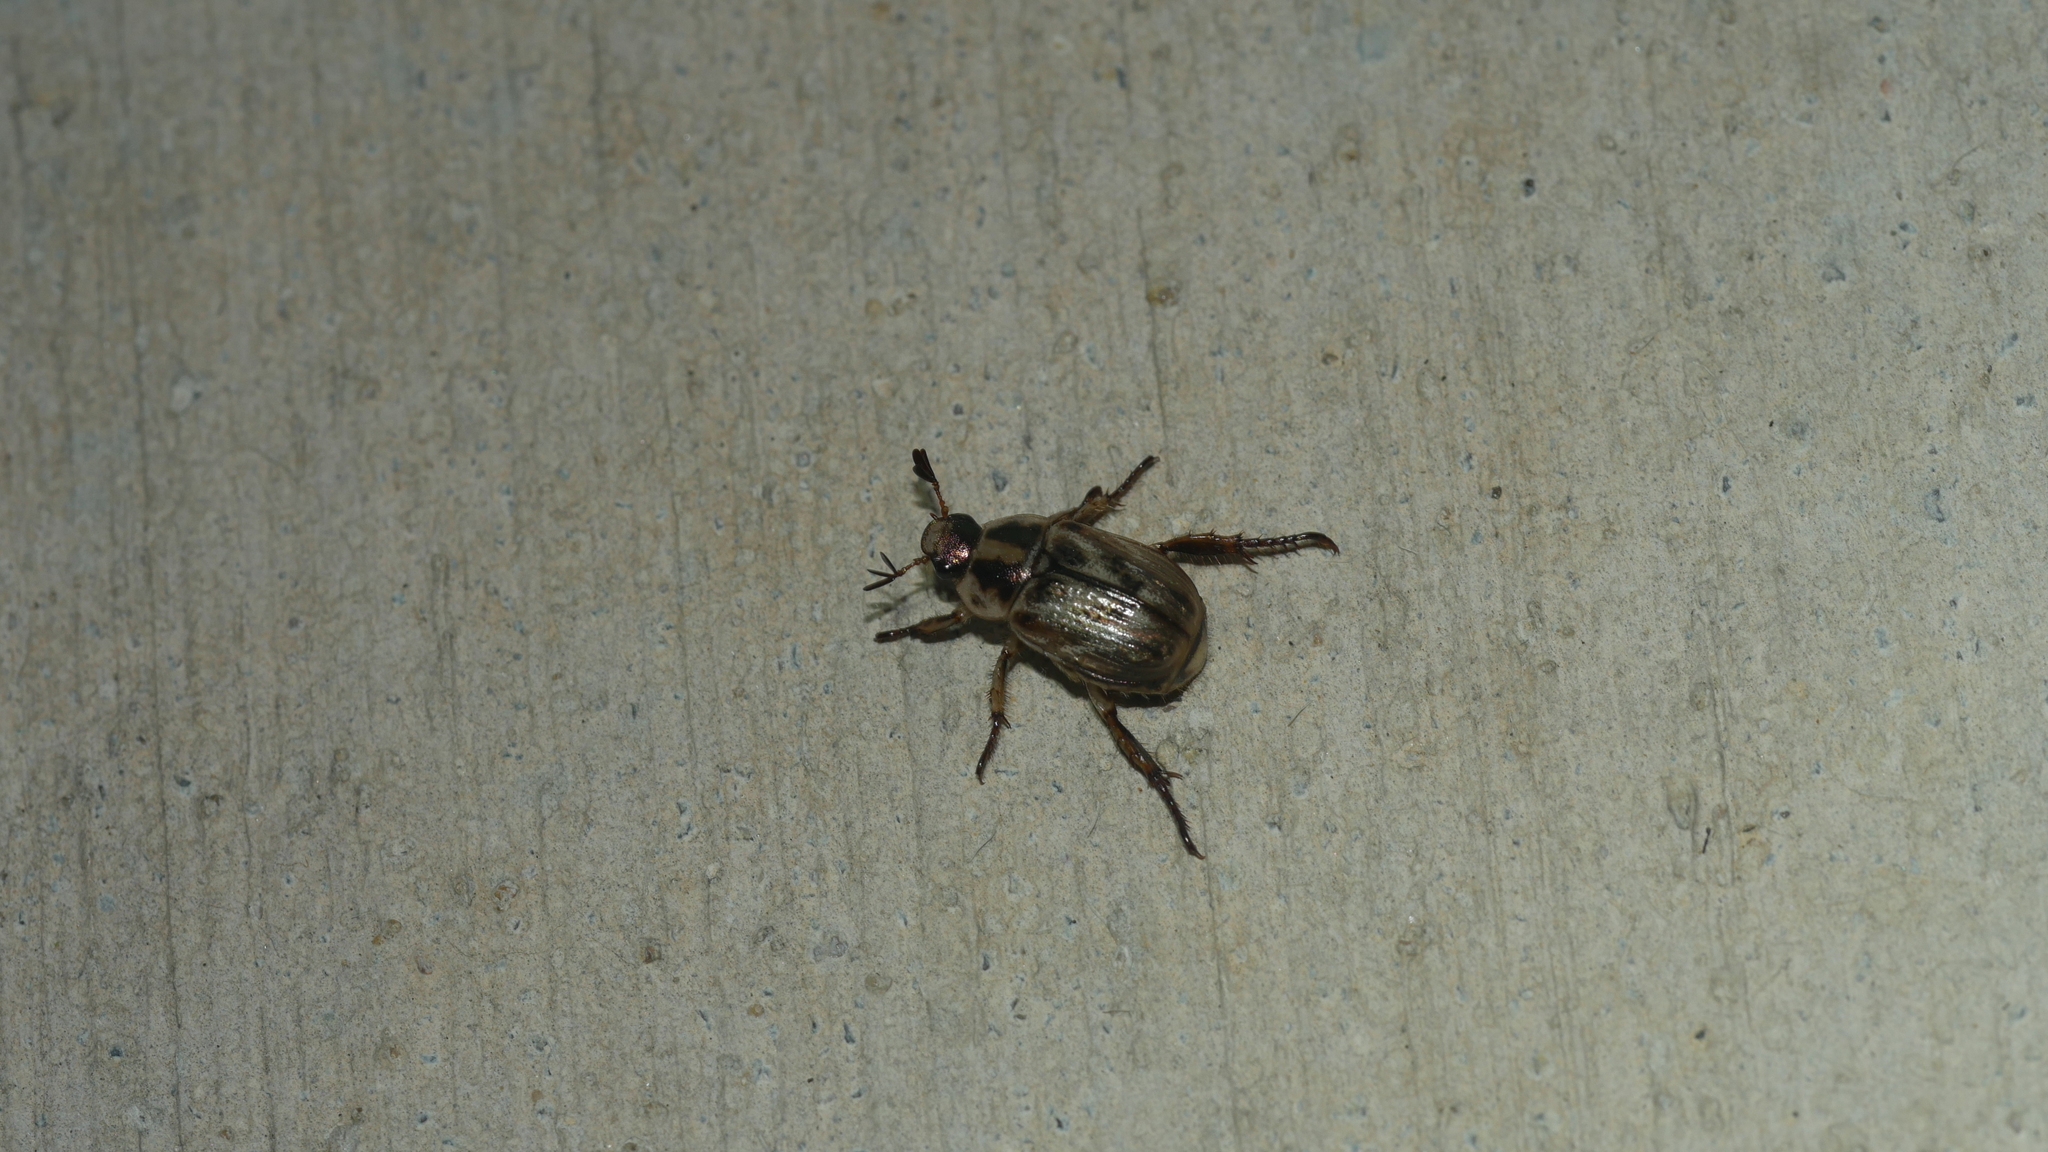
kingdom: Animalia
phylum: Arthropoda
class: Insecta
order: Coleoptera
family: Scarabaeidae
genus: Exomala
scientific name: Exomala orientalis
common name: Oriental beetle
